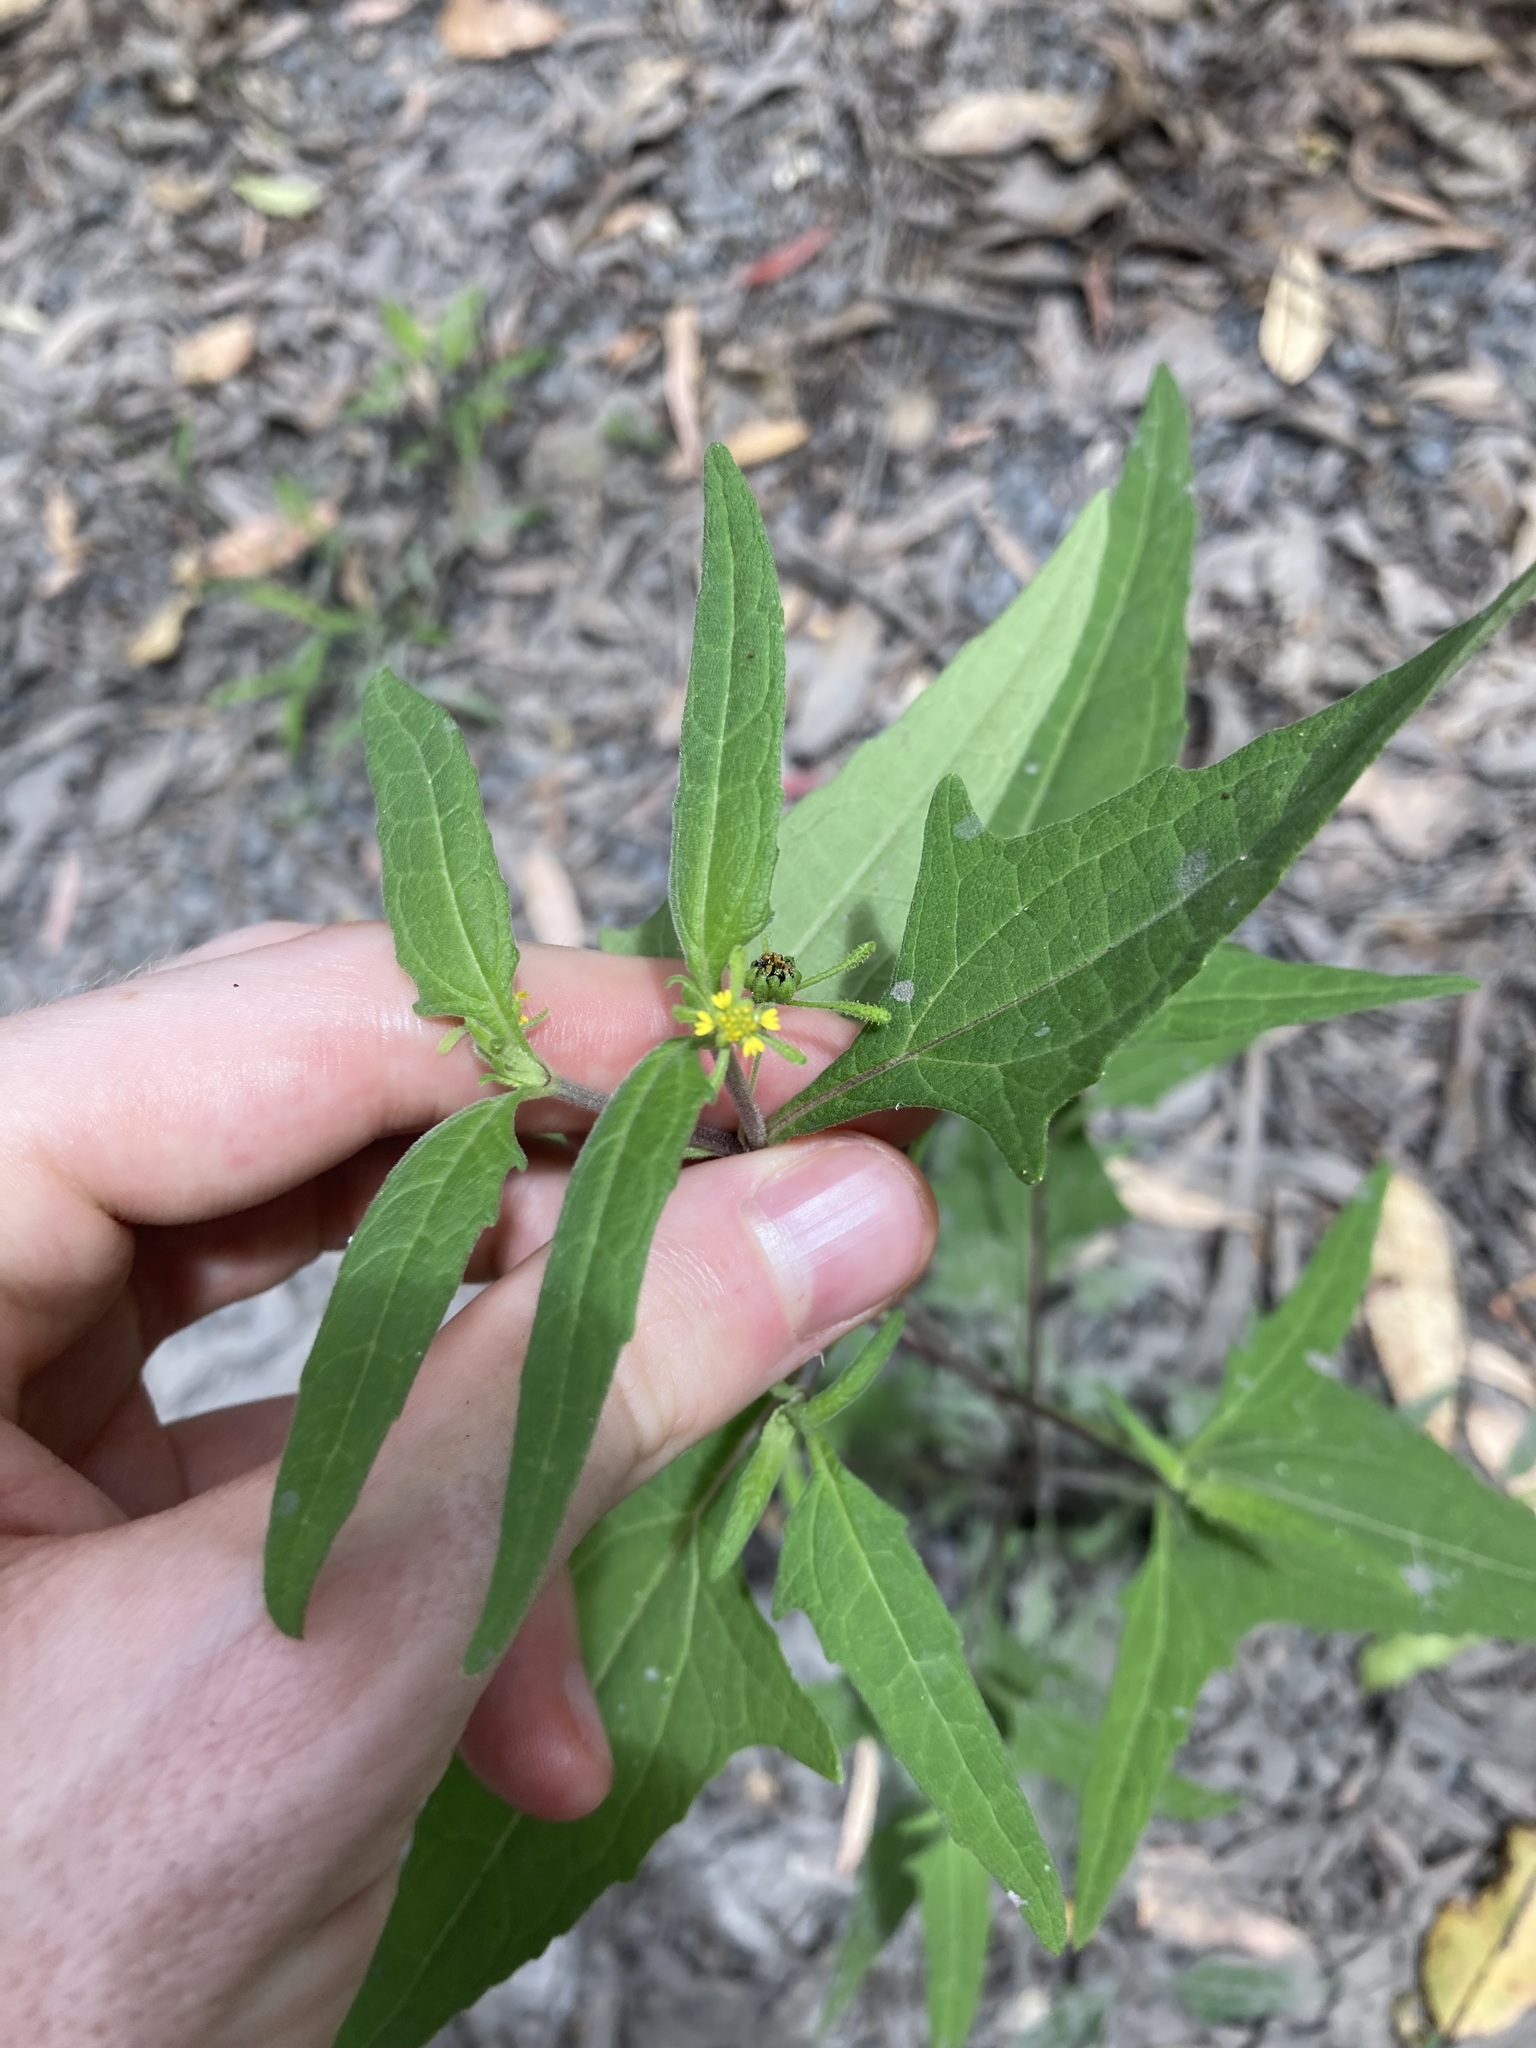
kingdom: Plantae
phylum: Tracheophyta
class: Magnoliopsida
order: Asterales
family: Asteraceae
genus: Sigesbeckia
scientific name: Sigesbeckia orientalis
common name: Eastern st paul's-wort
